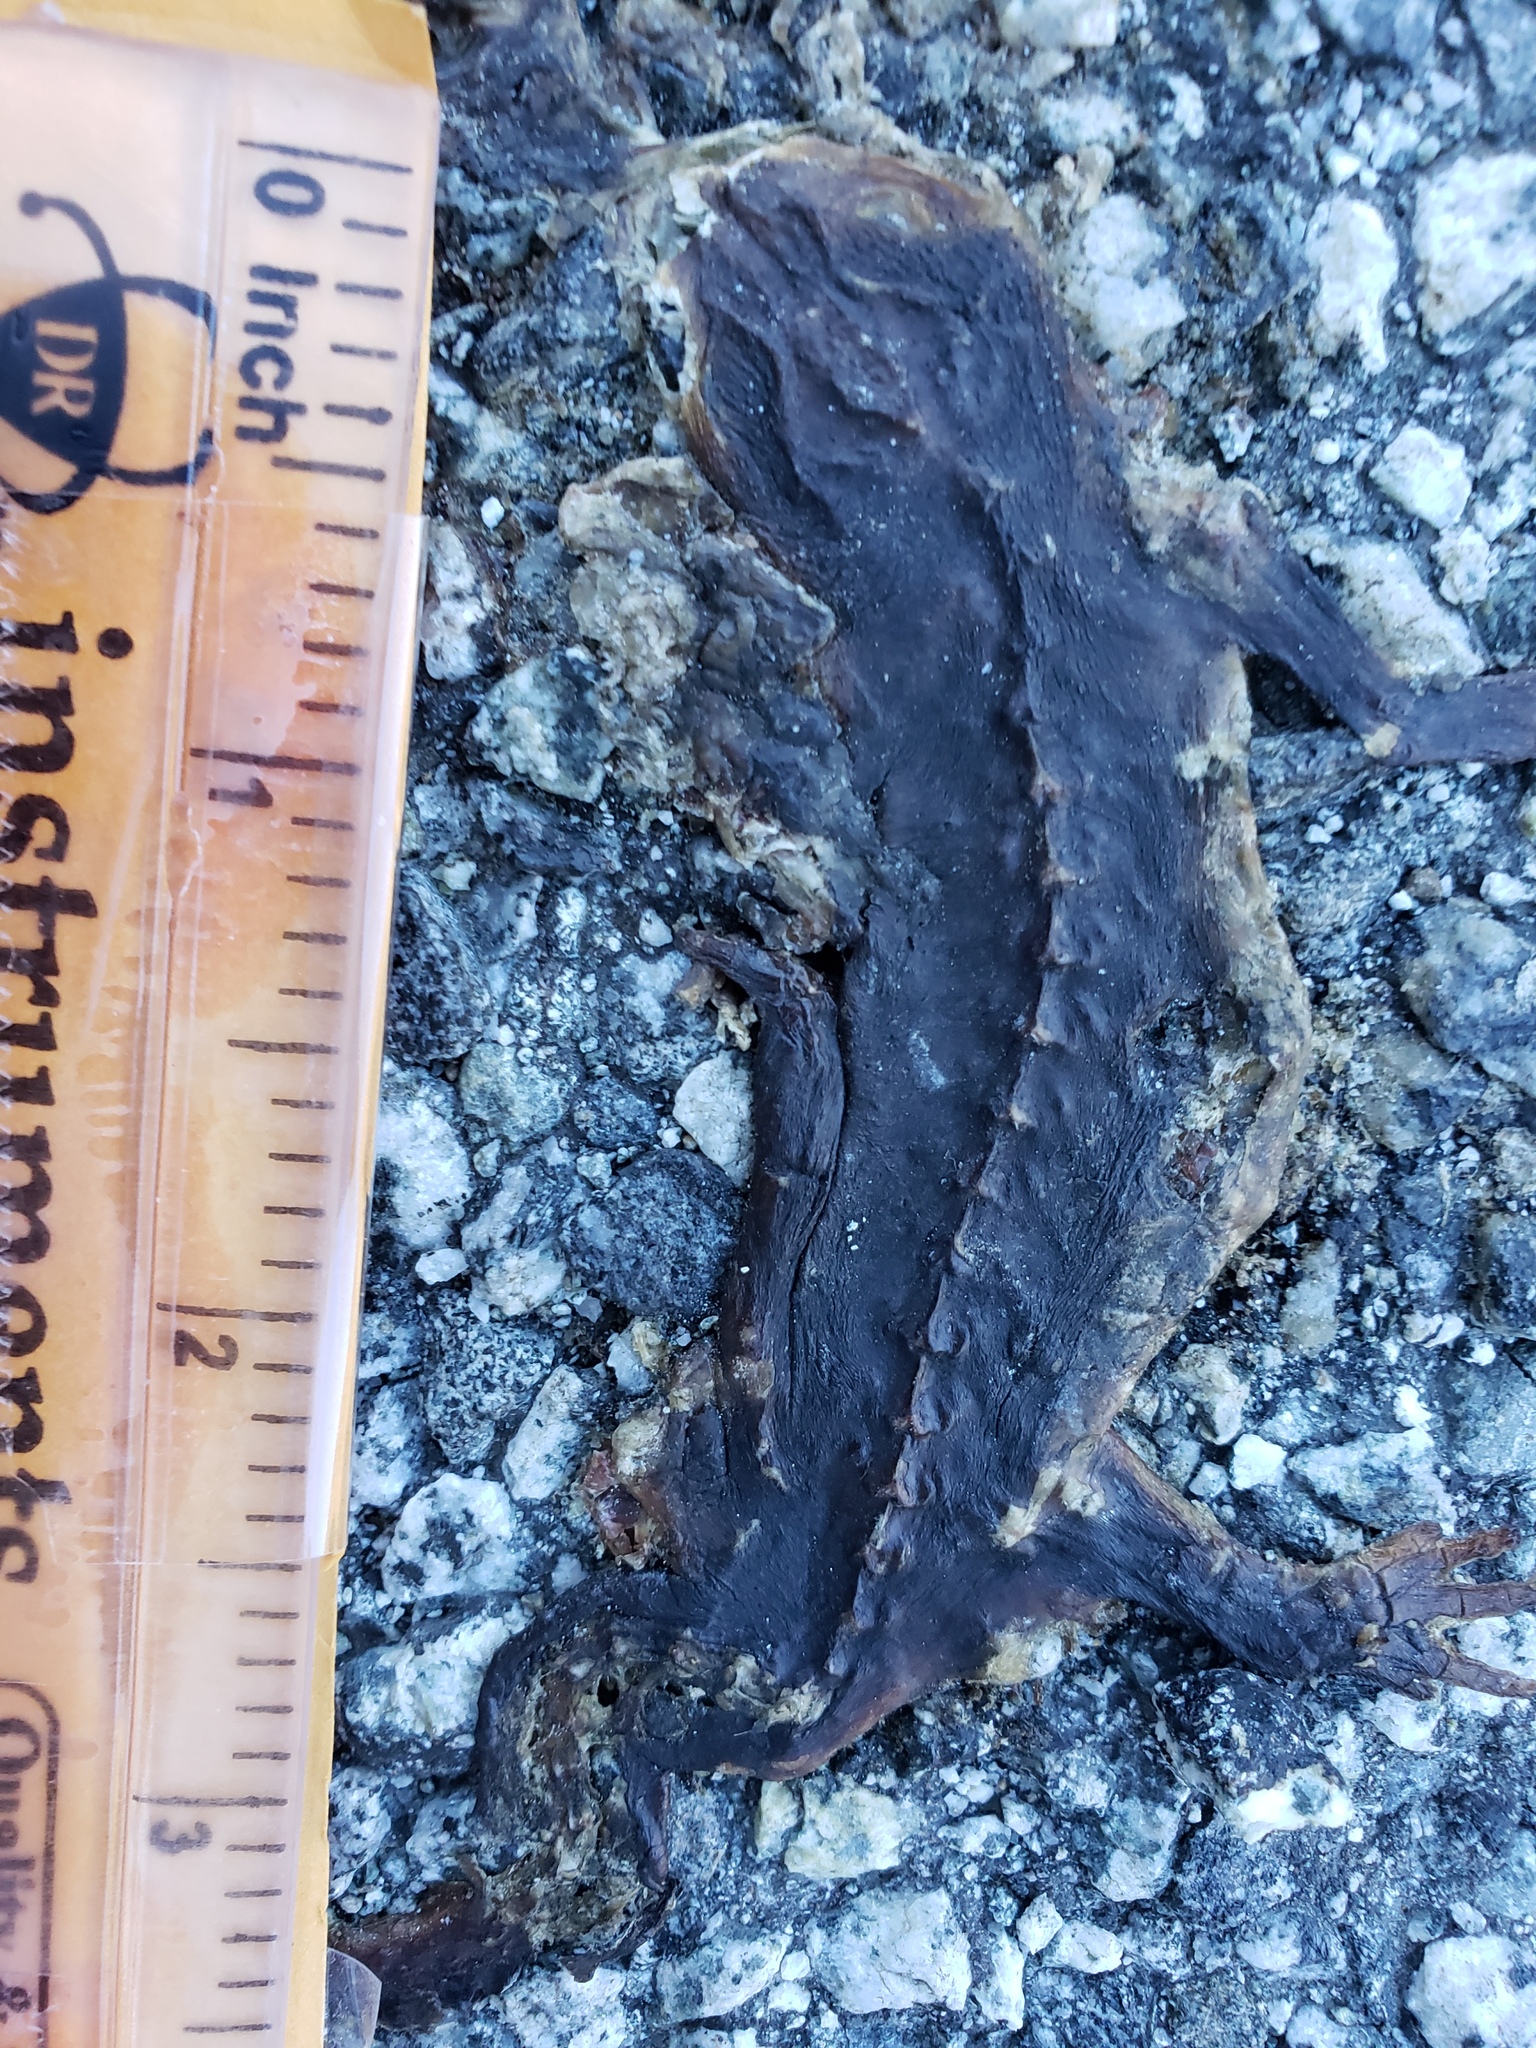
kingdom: Animalia
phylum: Chordata
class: Amphibia
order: Caudata
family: Salamandridae
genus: Taricha
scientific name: Taricha
